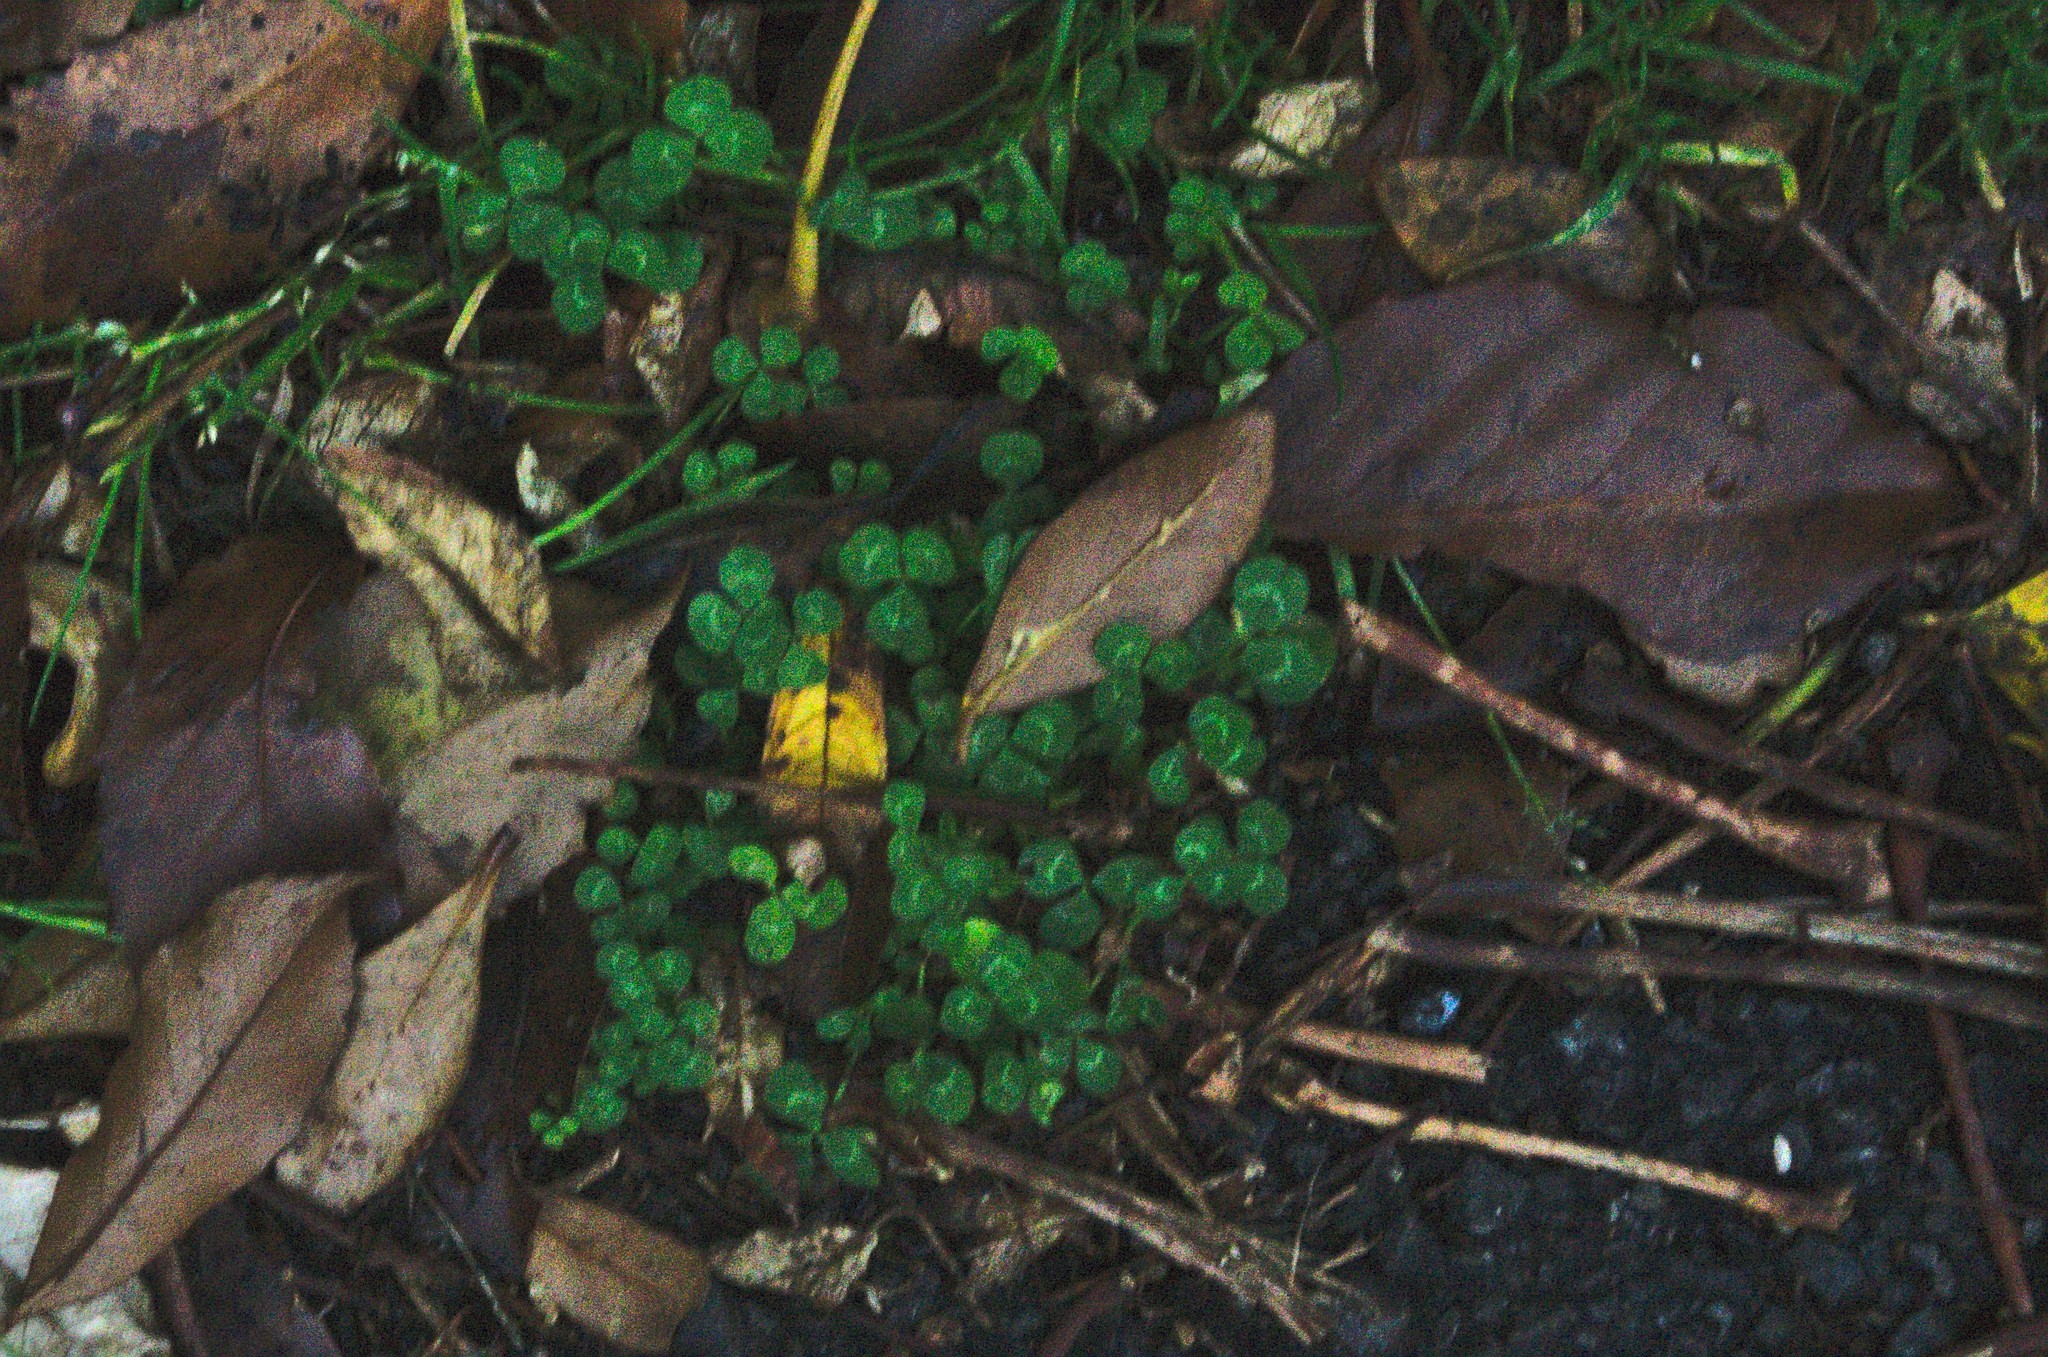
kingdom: Plantae
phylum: Tracheophyta
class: Magnoliopsida
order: Fabales
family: Fabaceae
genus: Trifolium
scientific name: Trifolium repens
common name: White clover
